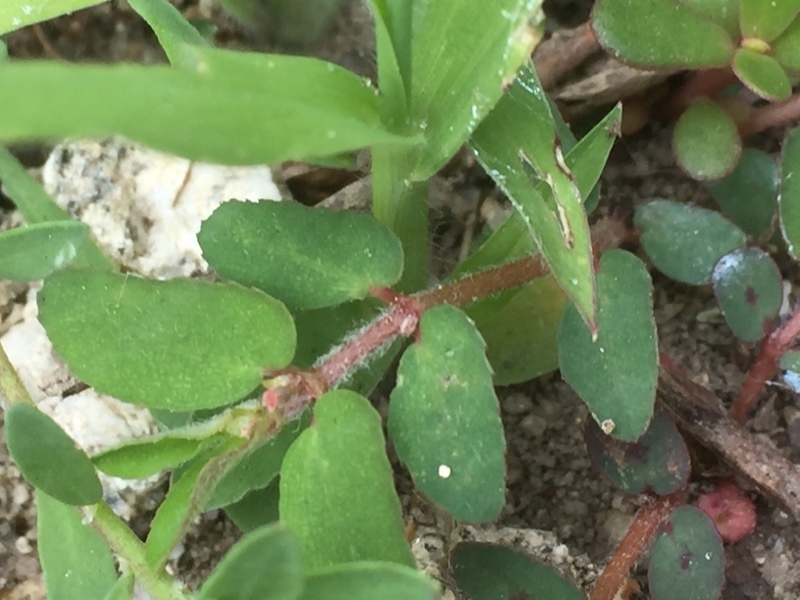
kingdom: Plantae
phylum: Tracheophyta
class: Magnoliopsida
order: Malpighiales
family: Euphorbiaceae
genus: Euphorbia
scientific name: Euphorbia maculata
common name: Spotted spurge
